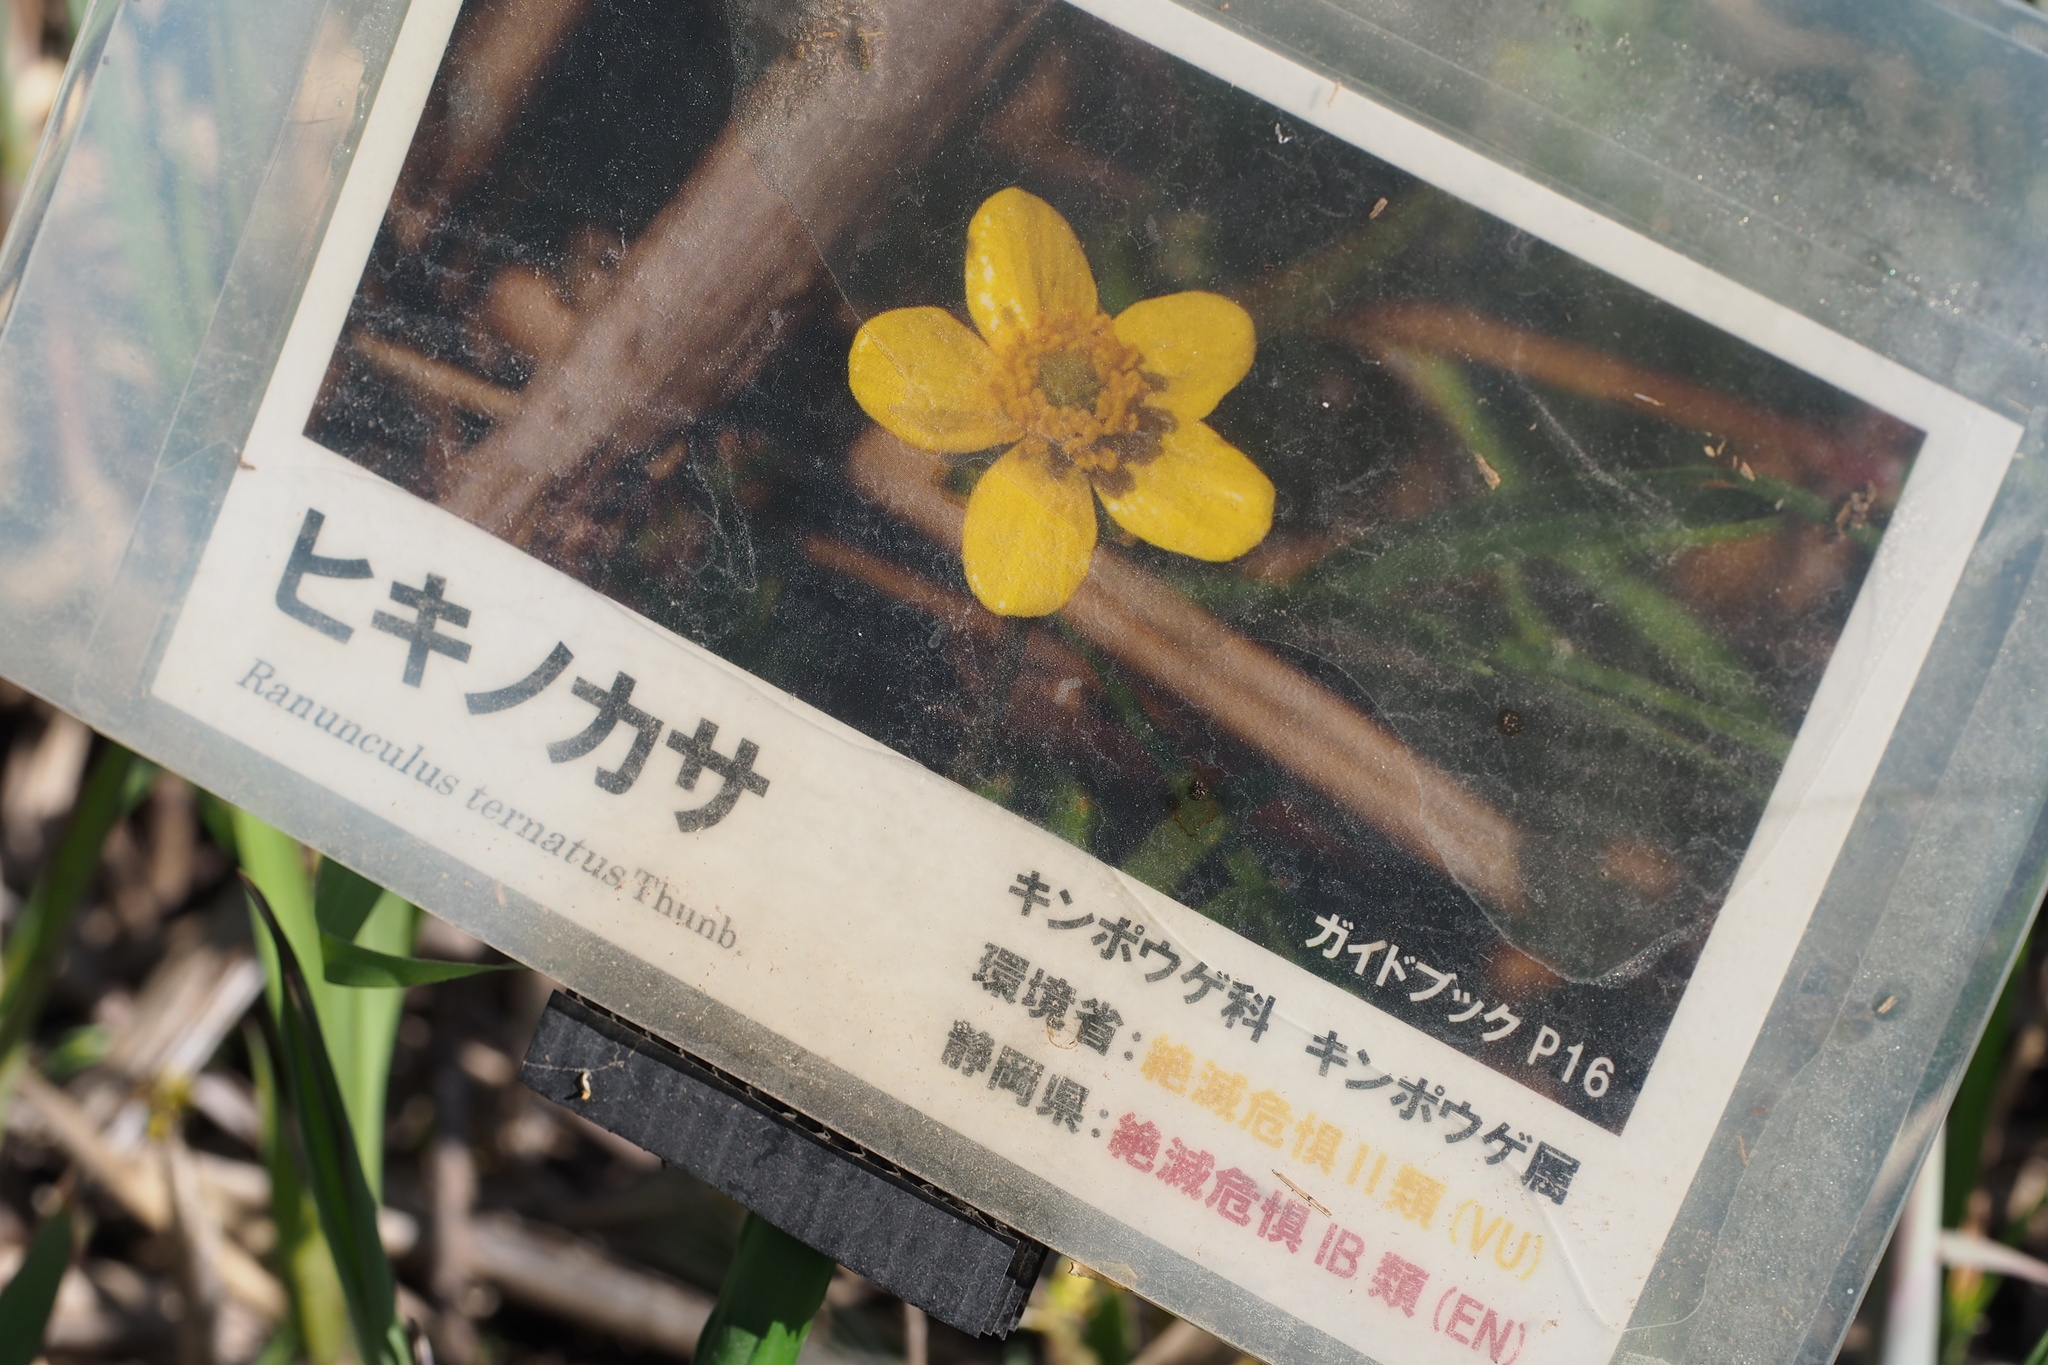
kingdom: Plantae
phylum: Tracheophyta
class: Magnoliopsida
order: Ranunculales
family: Ranunculaceae
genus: Ranunculus
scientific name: Ranunculus ternatus
